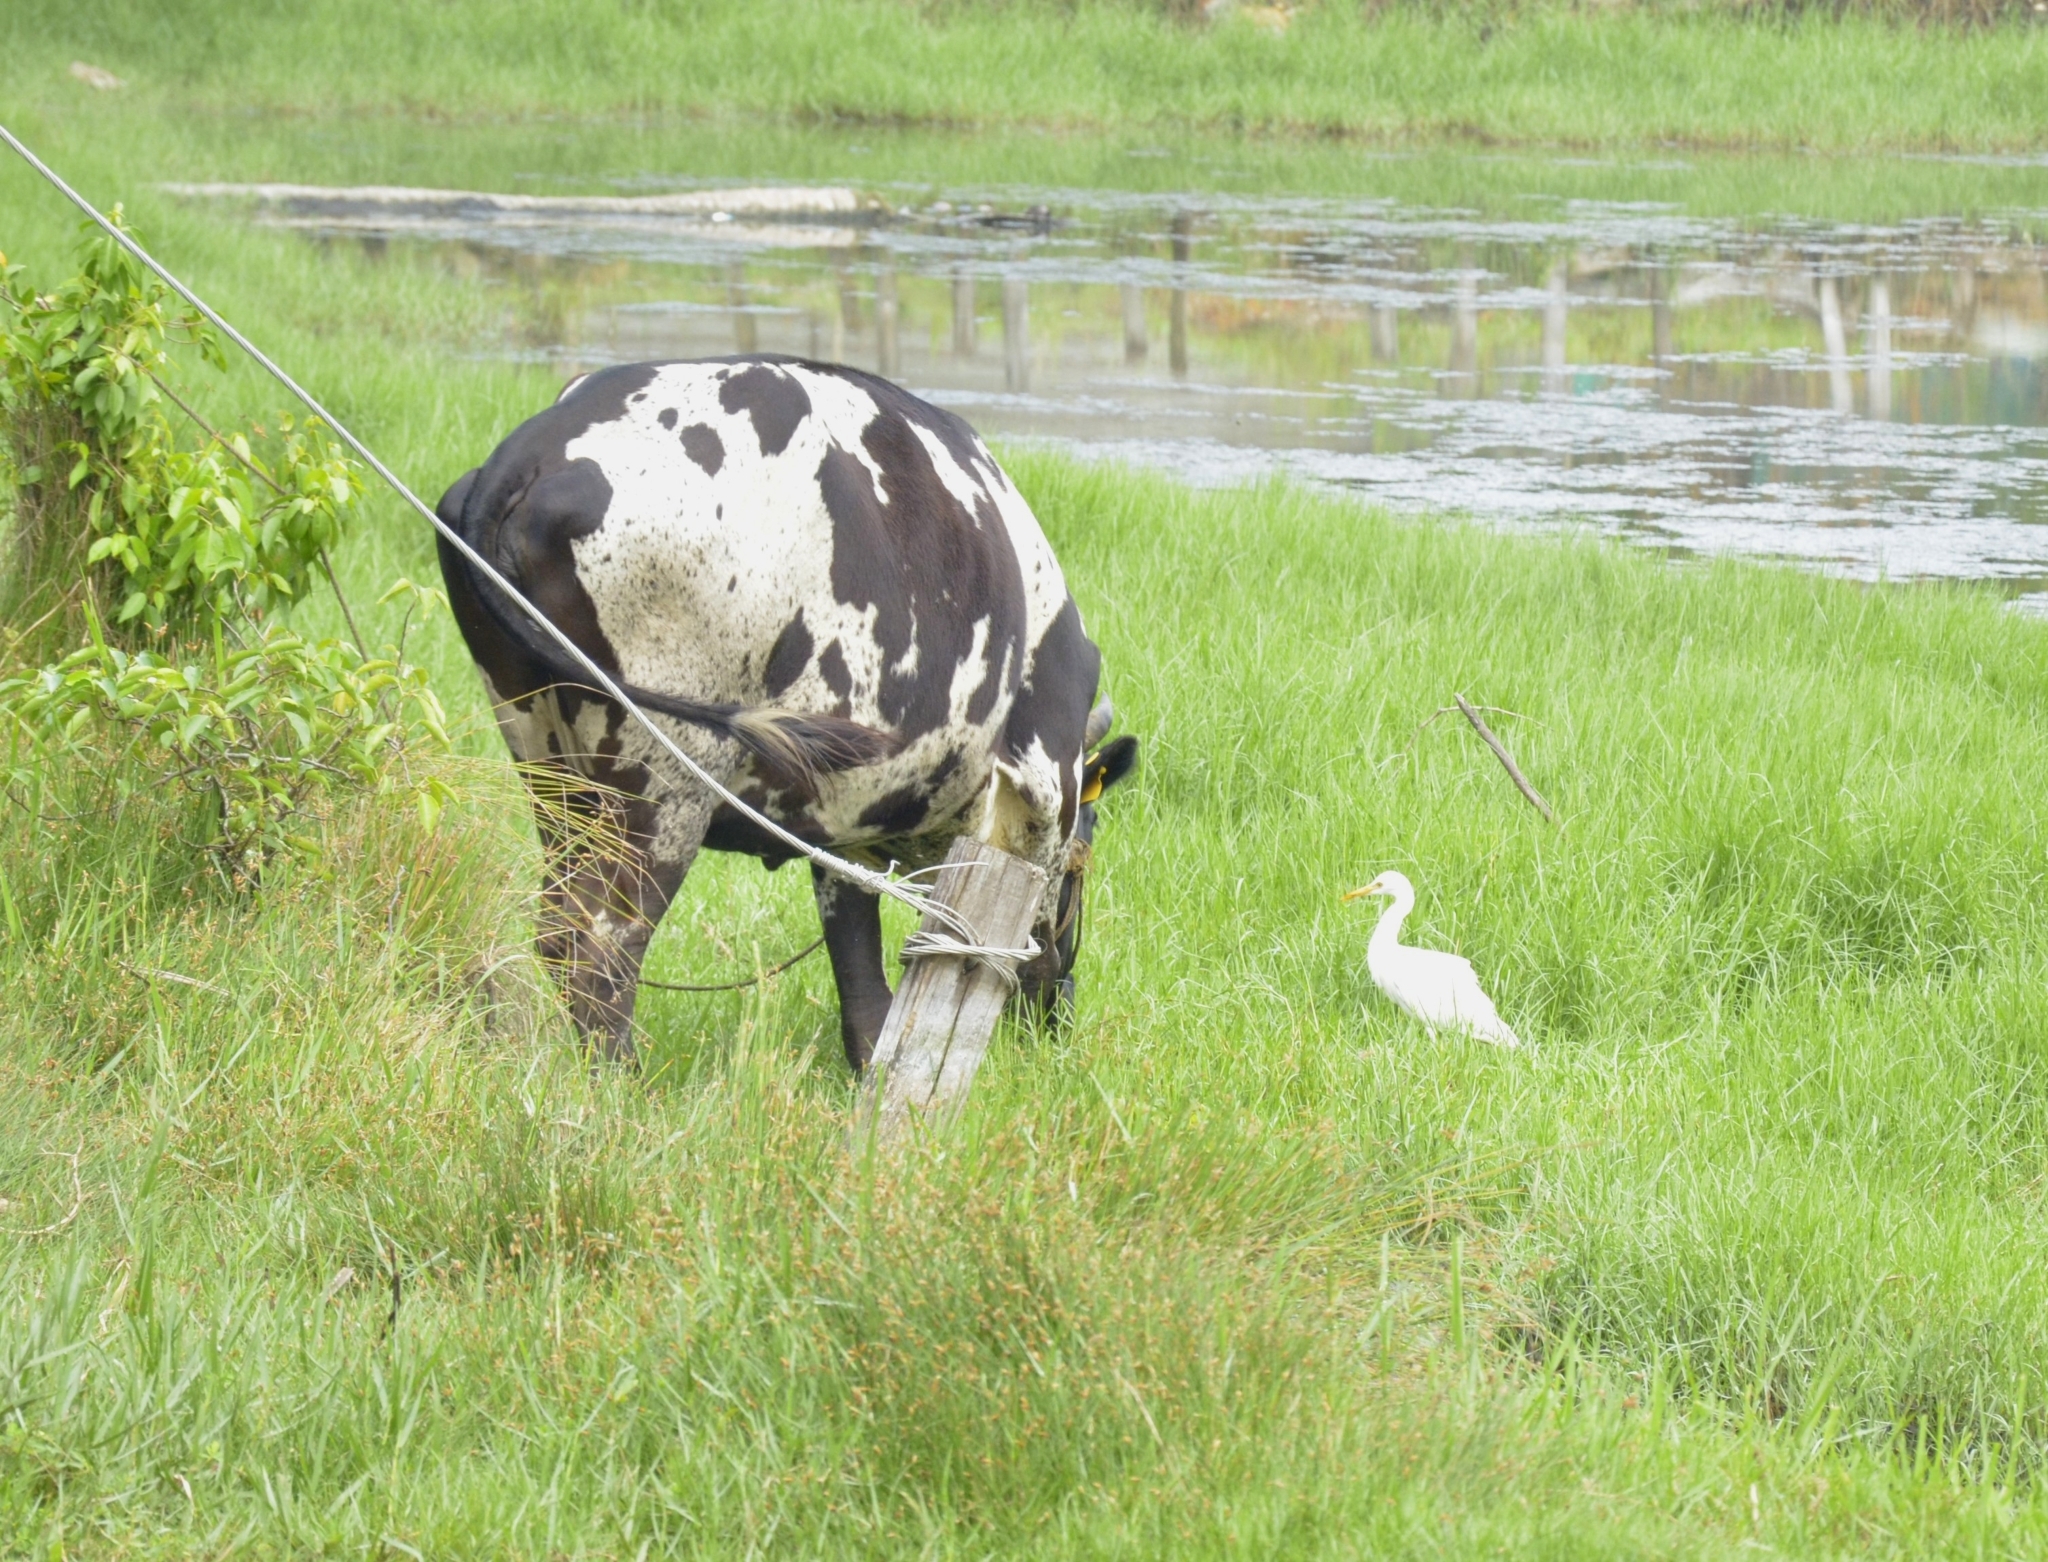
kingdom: Animalia
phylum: Chordata
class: Aves
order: Pelecaniformes
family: Ardeidae
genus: Bubulcus
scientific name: Bubulcus coromandus
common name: Eastern cattle egret
